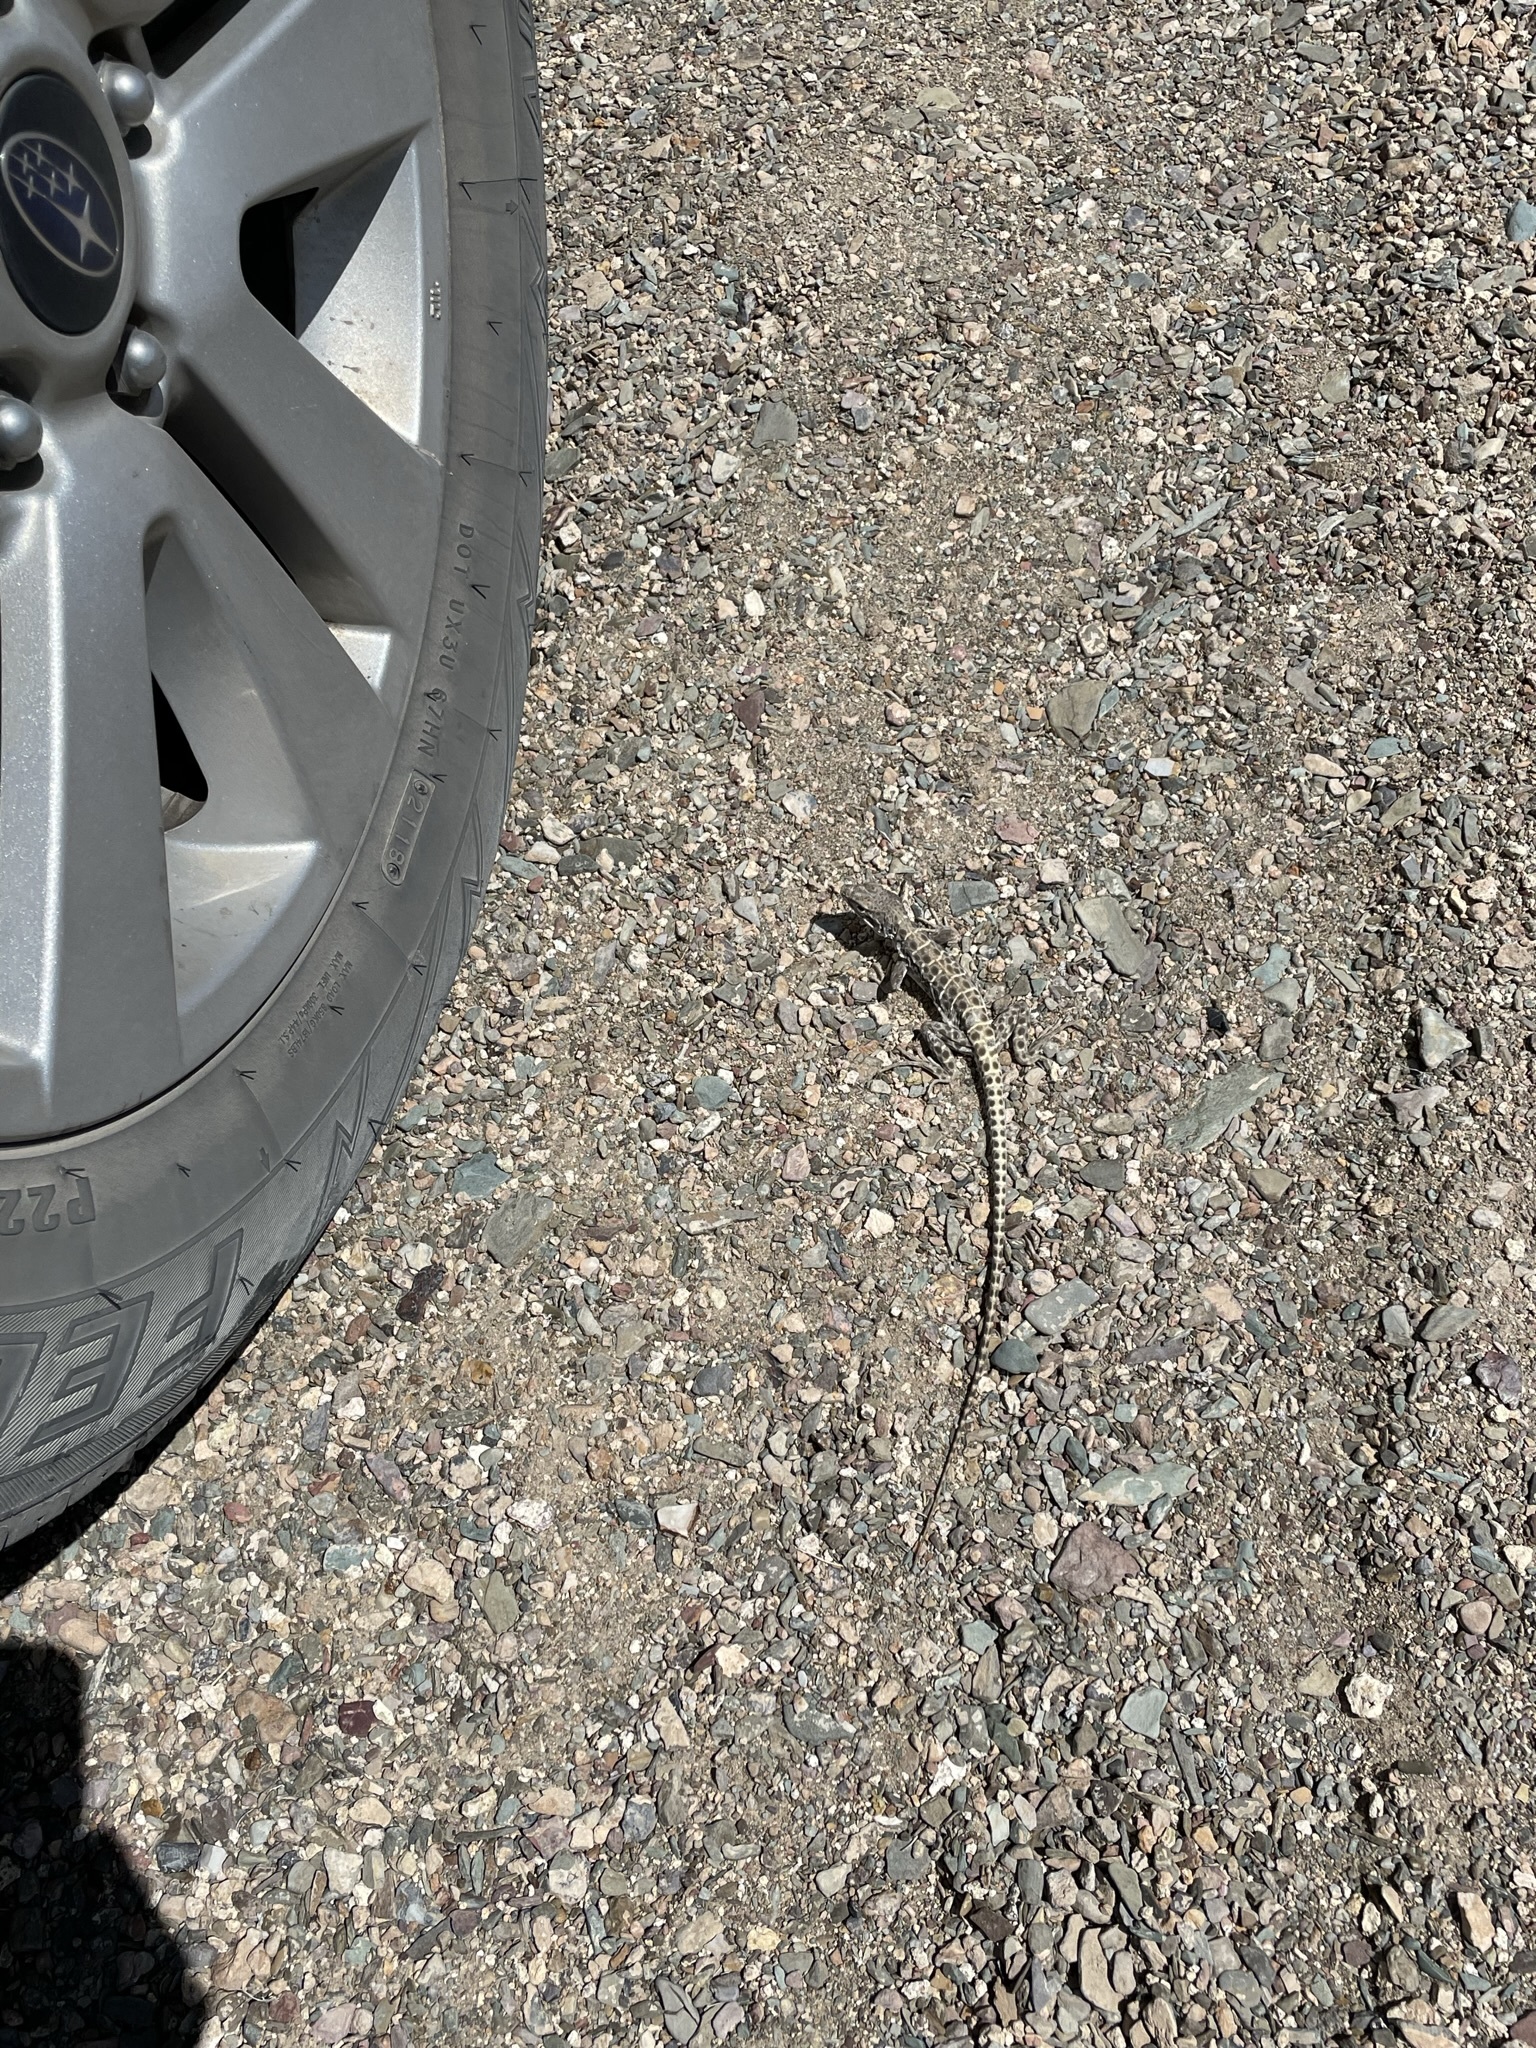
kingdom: Animalia
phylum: Chordata
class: Squamata
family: Crotaphytidae
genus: Gambelia
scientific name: Gambelia wislizenii
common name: Longnose leopard lizard
